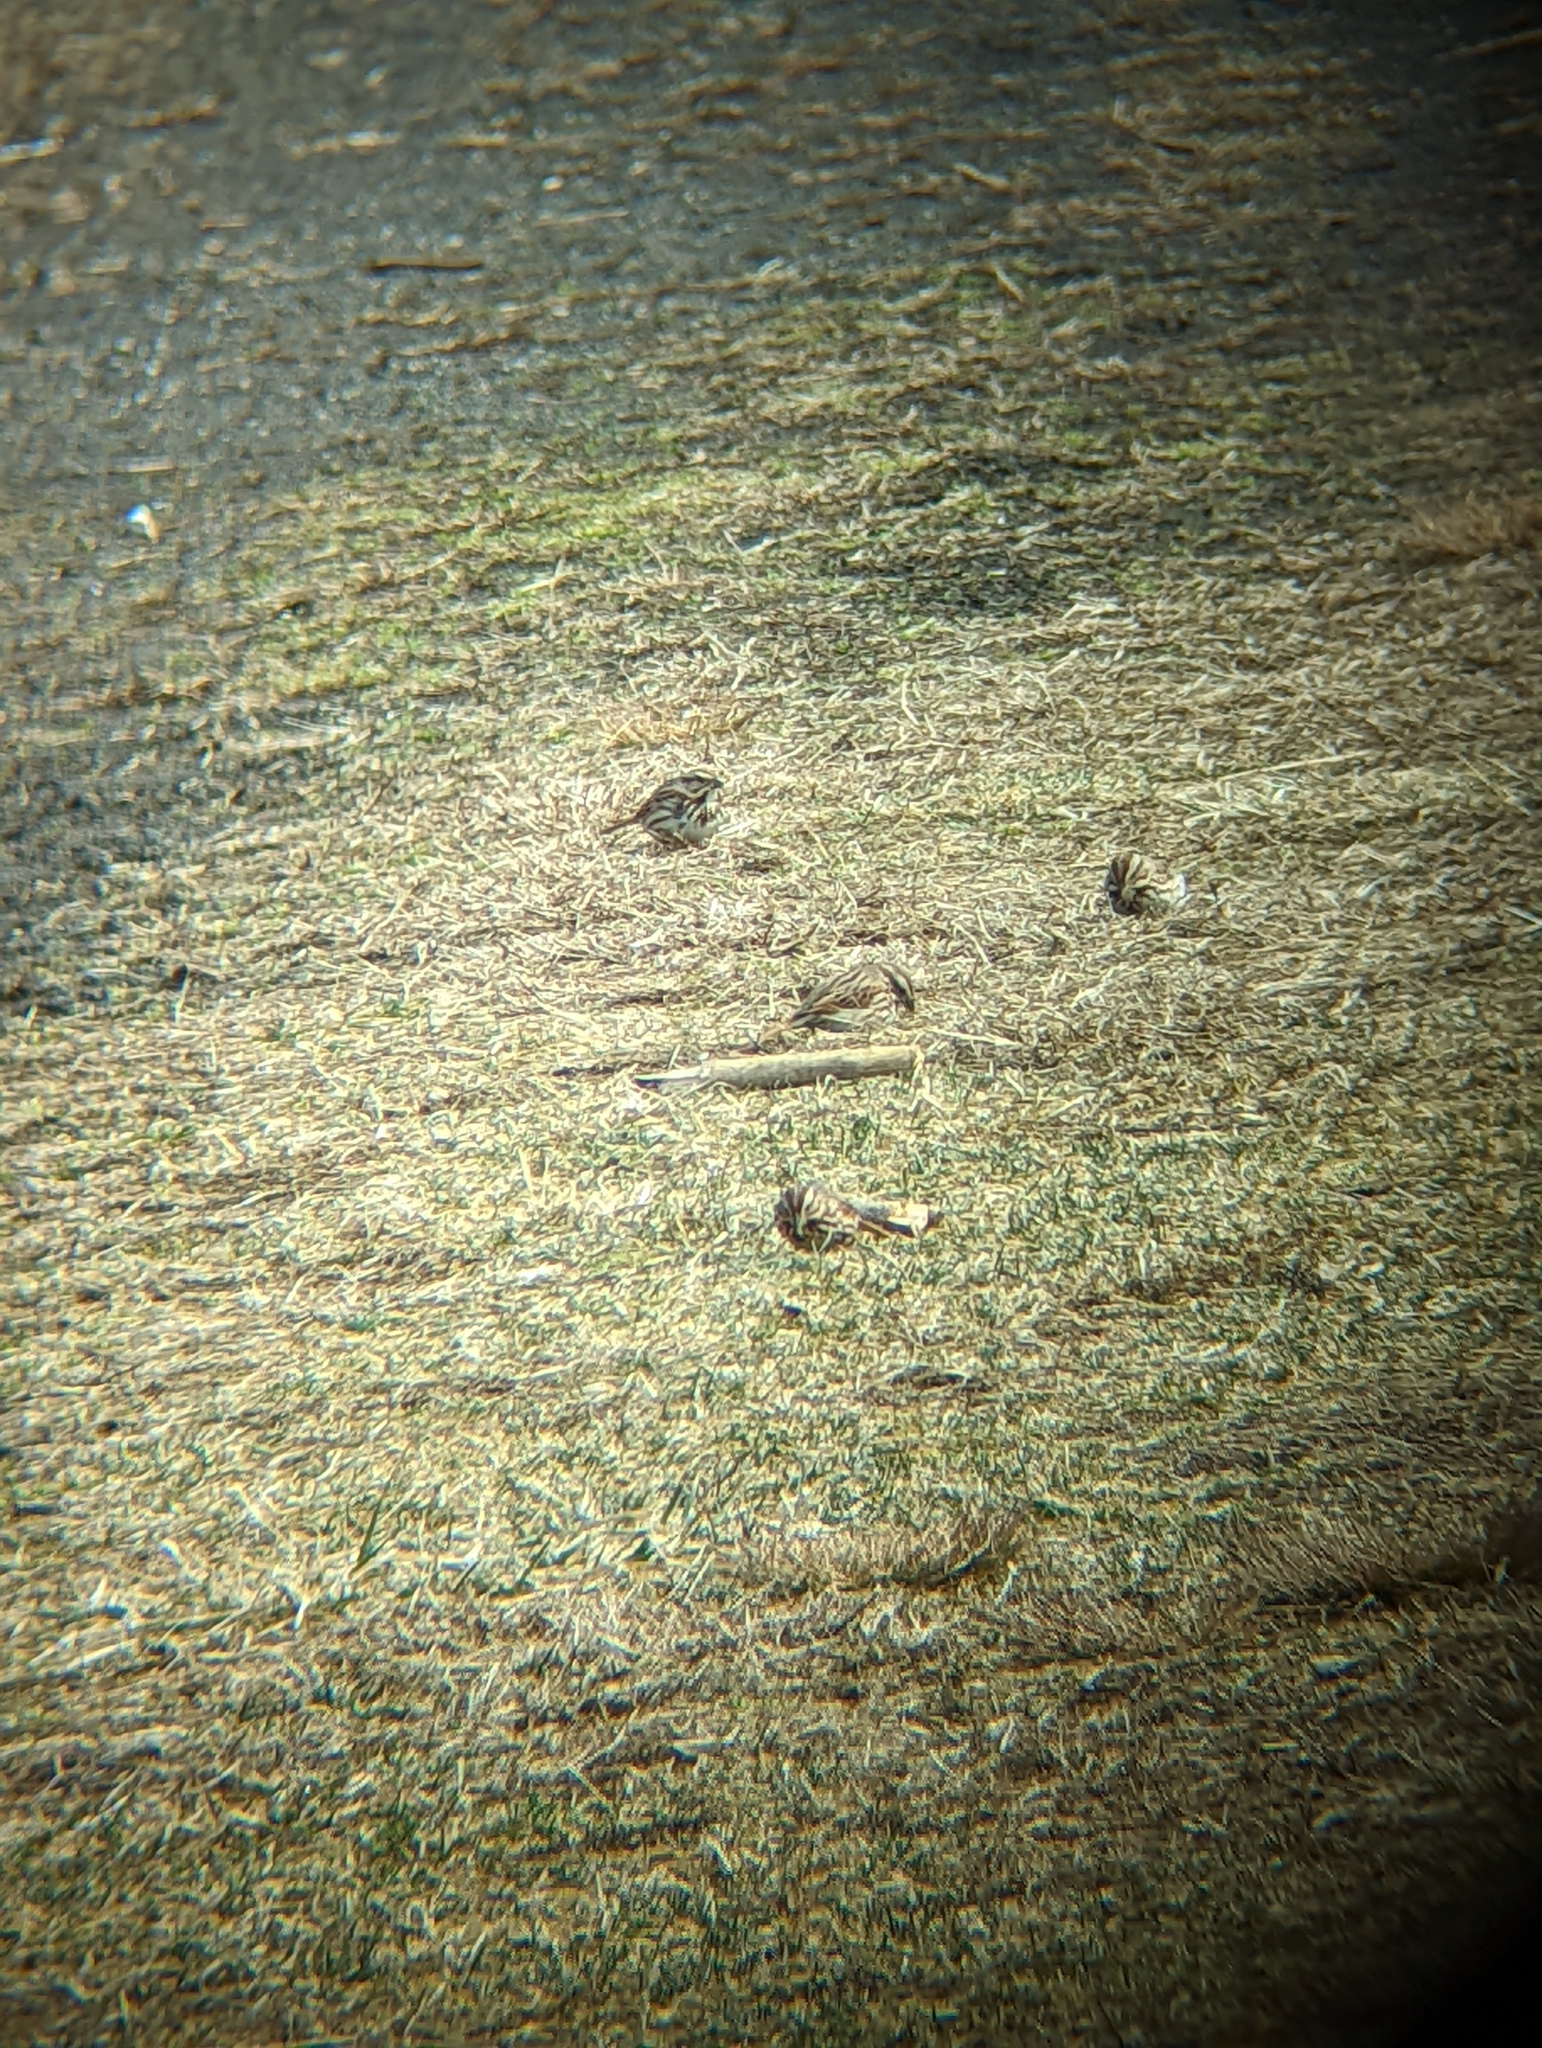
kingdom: Animalia
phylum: Chordata
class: Aves
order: Passeriformes
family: Passerellidae
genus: Melospiza
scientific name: Melospiza melodia
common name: Song sparrow
